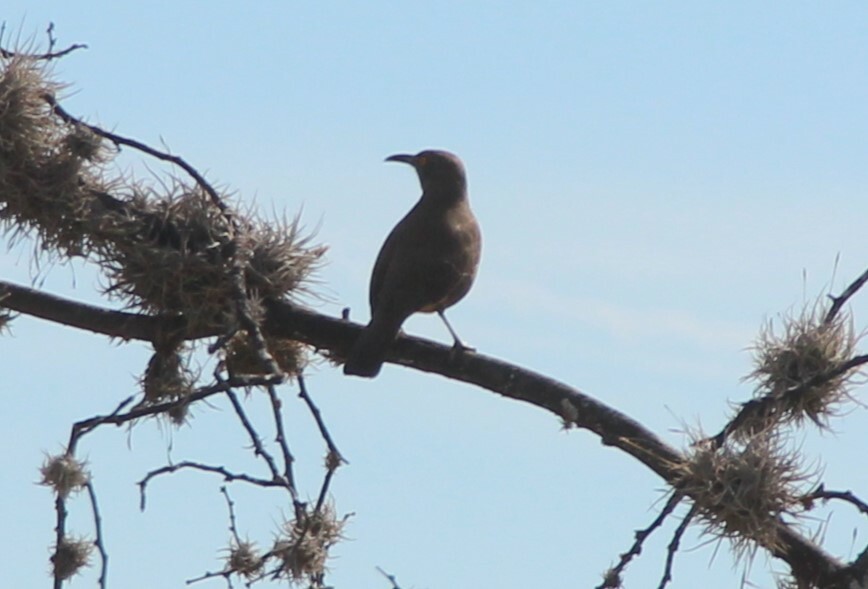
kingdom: Animalia
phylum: Chordata
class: Aves
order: Passeriformes
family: Mimidae
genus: Toxostoma
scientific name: Toxostoma curvirostre
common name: Curve-billed thrasher
